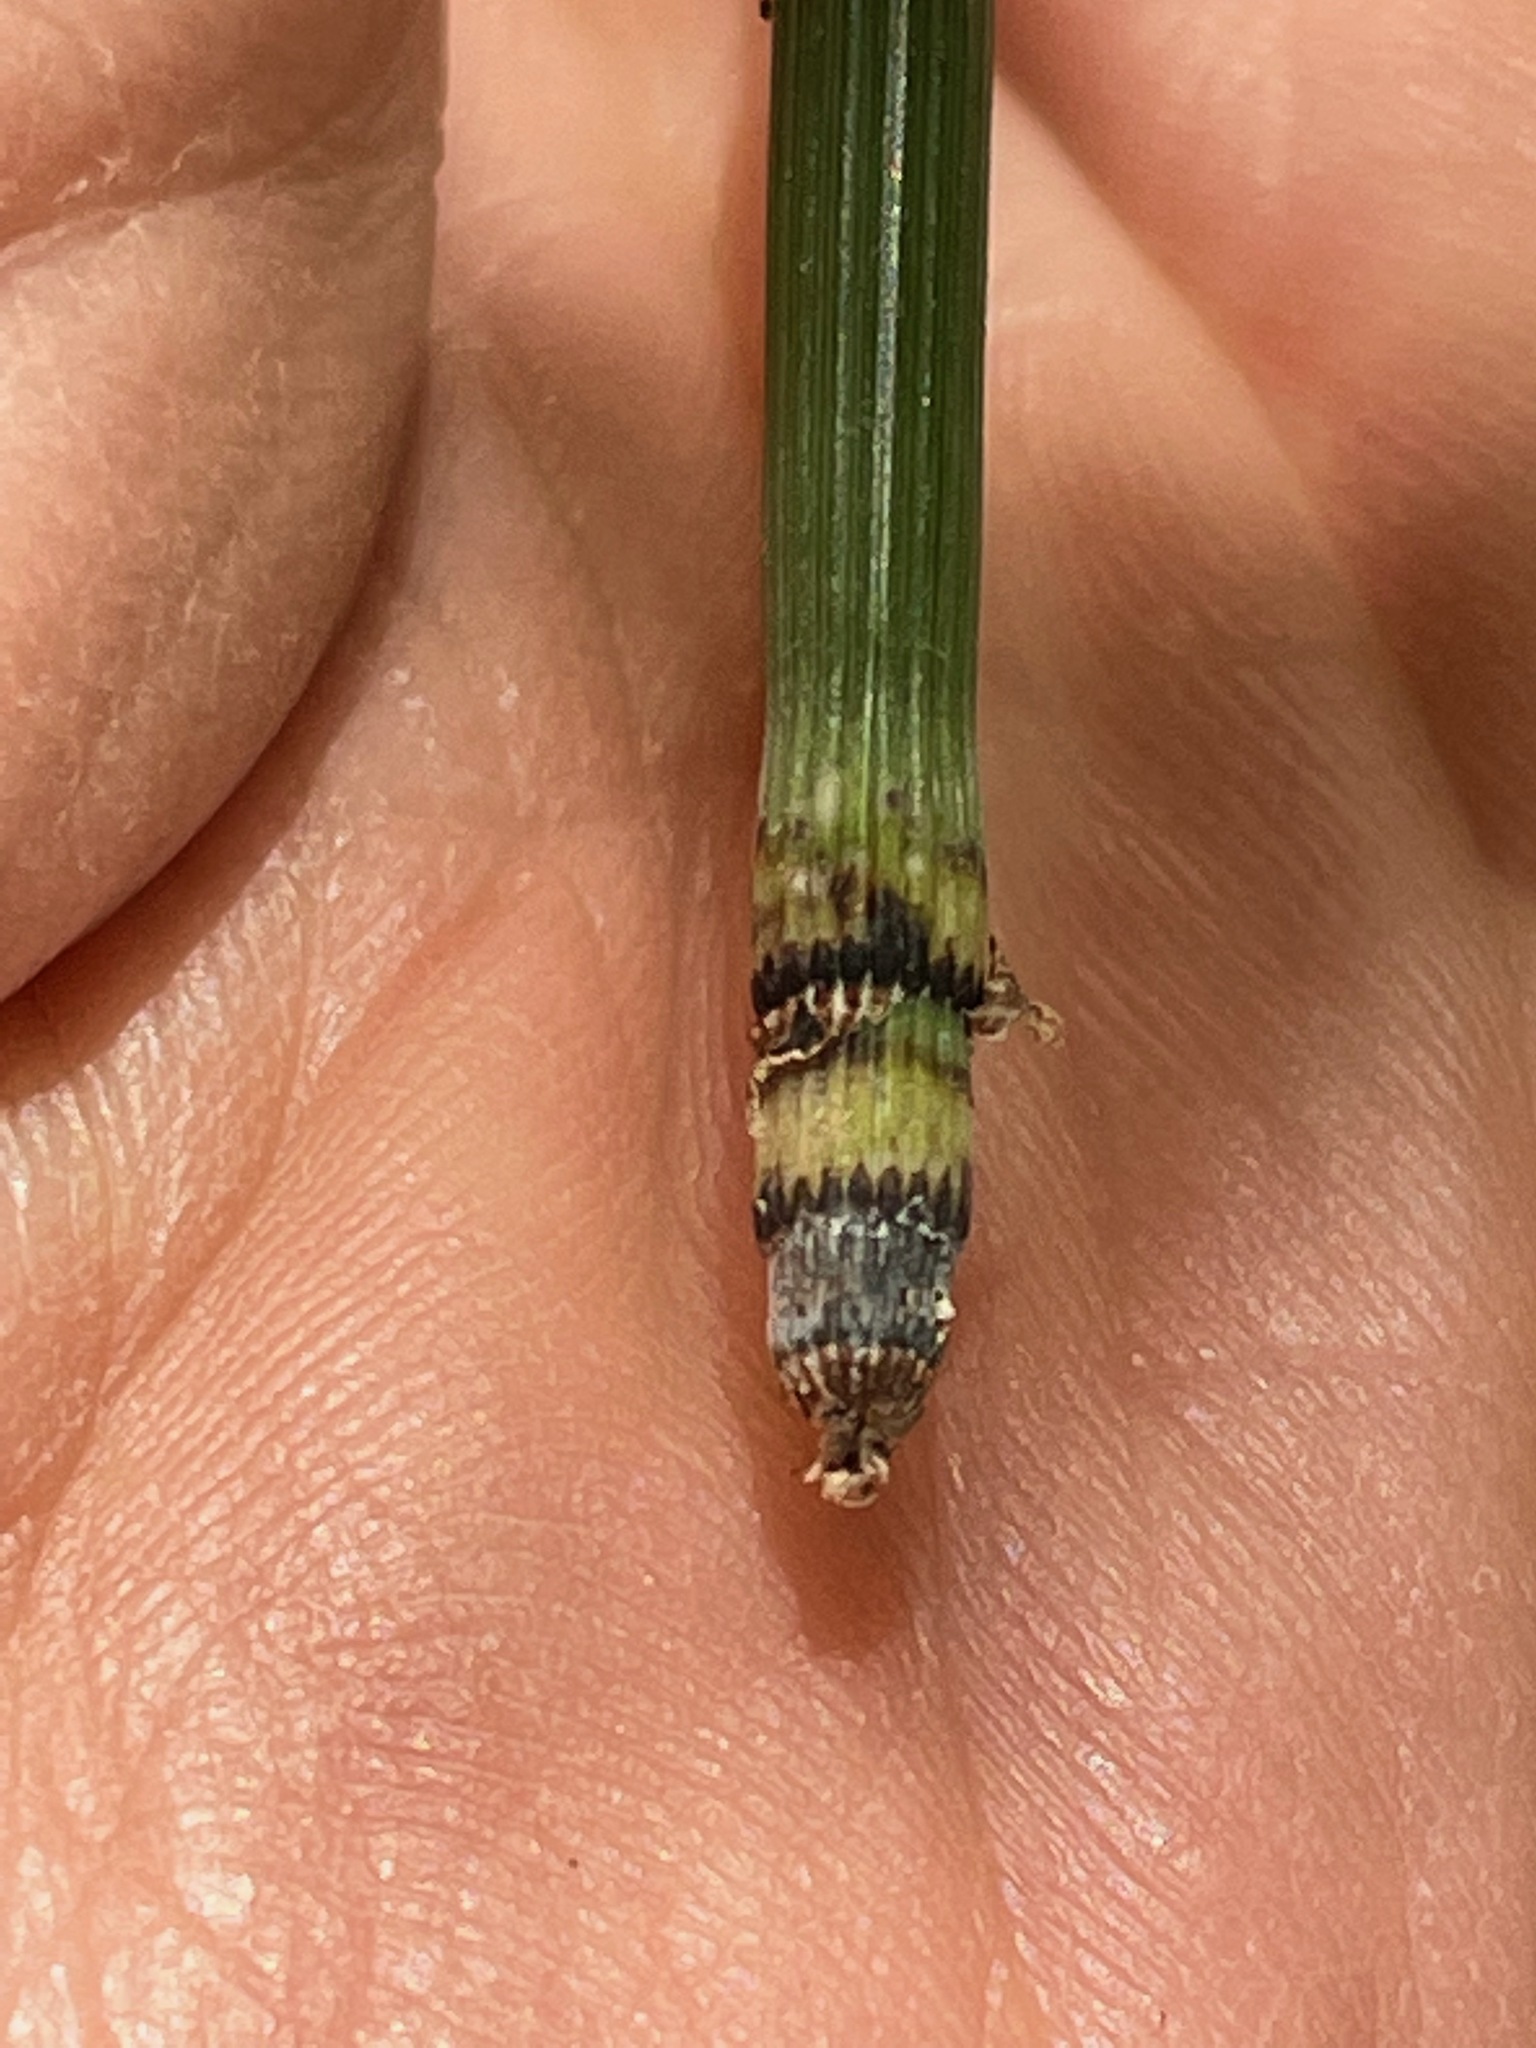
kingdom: Plantae
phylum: Tracheophyta
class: Polypodiopsida
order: Equisetales
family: Equisetaceae
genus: Equisetum
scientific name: Equisetum hyemale
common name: Rough horsetail
